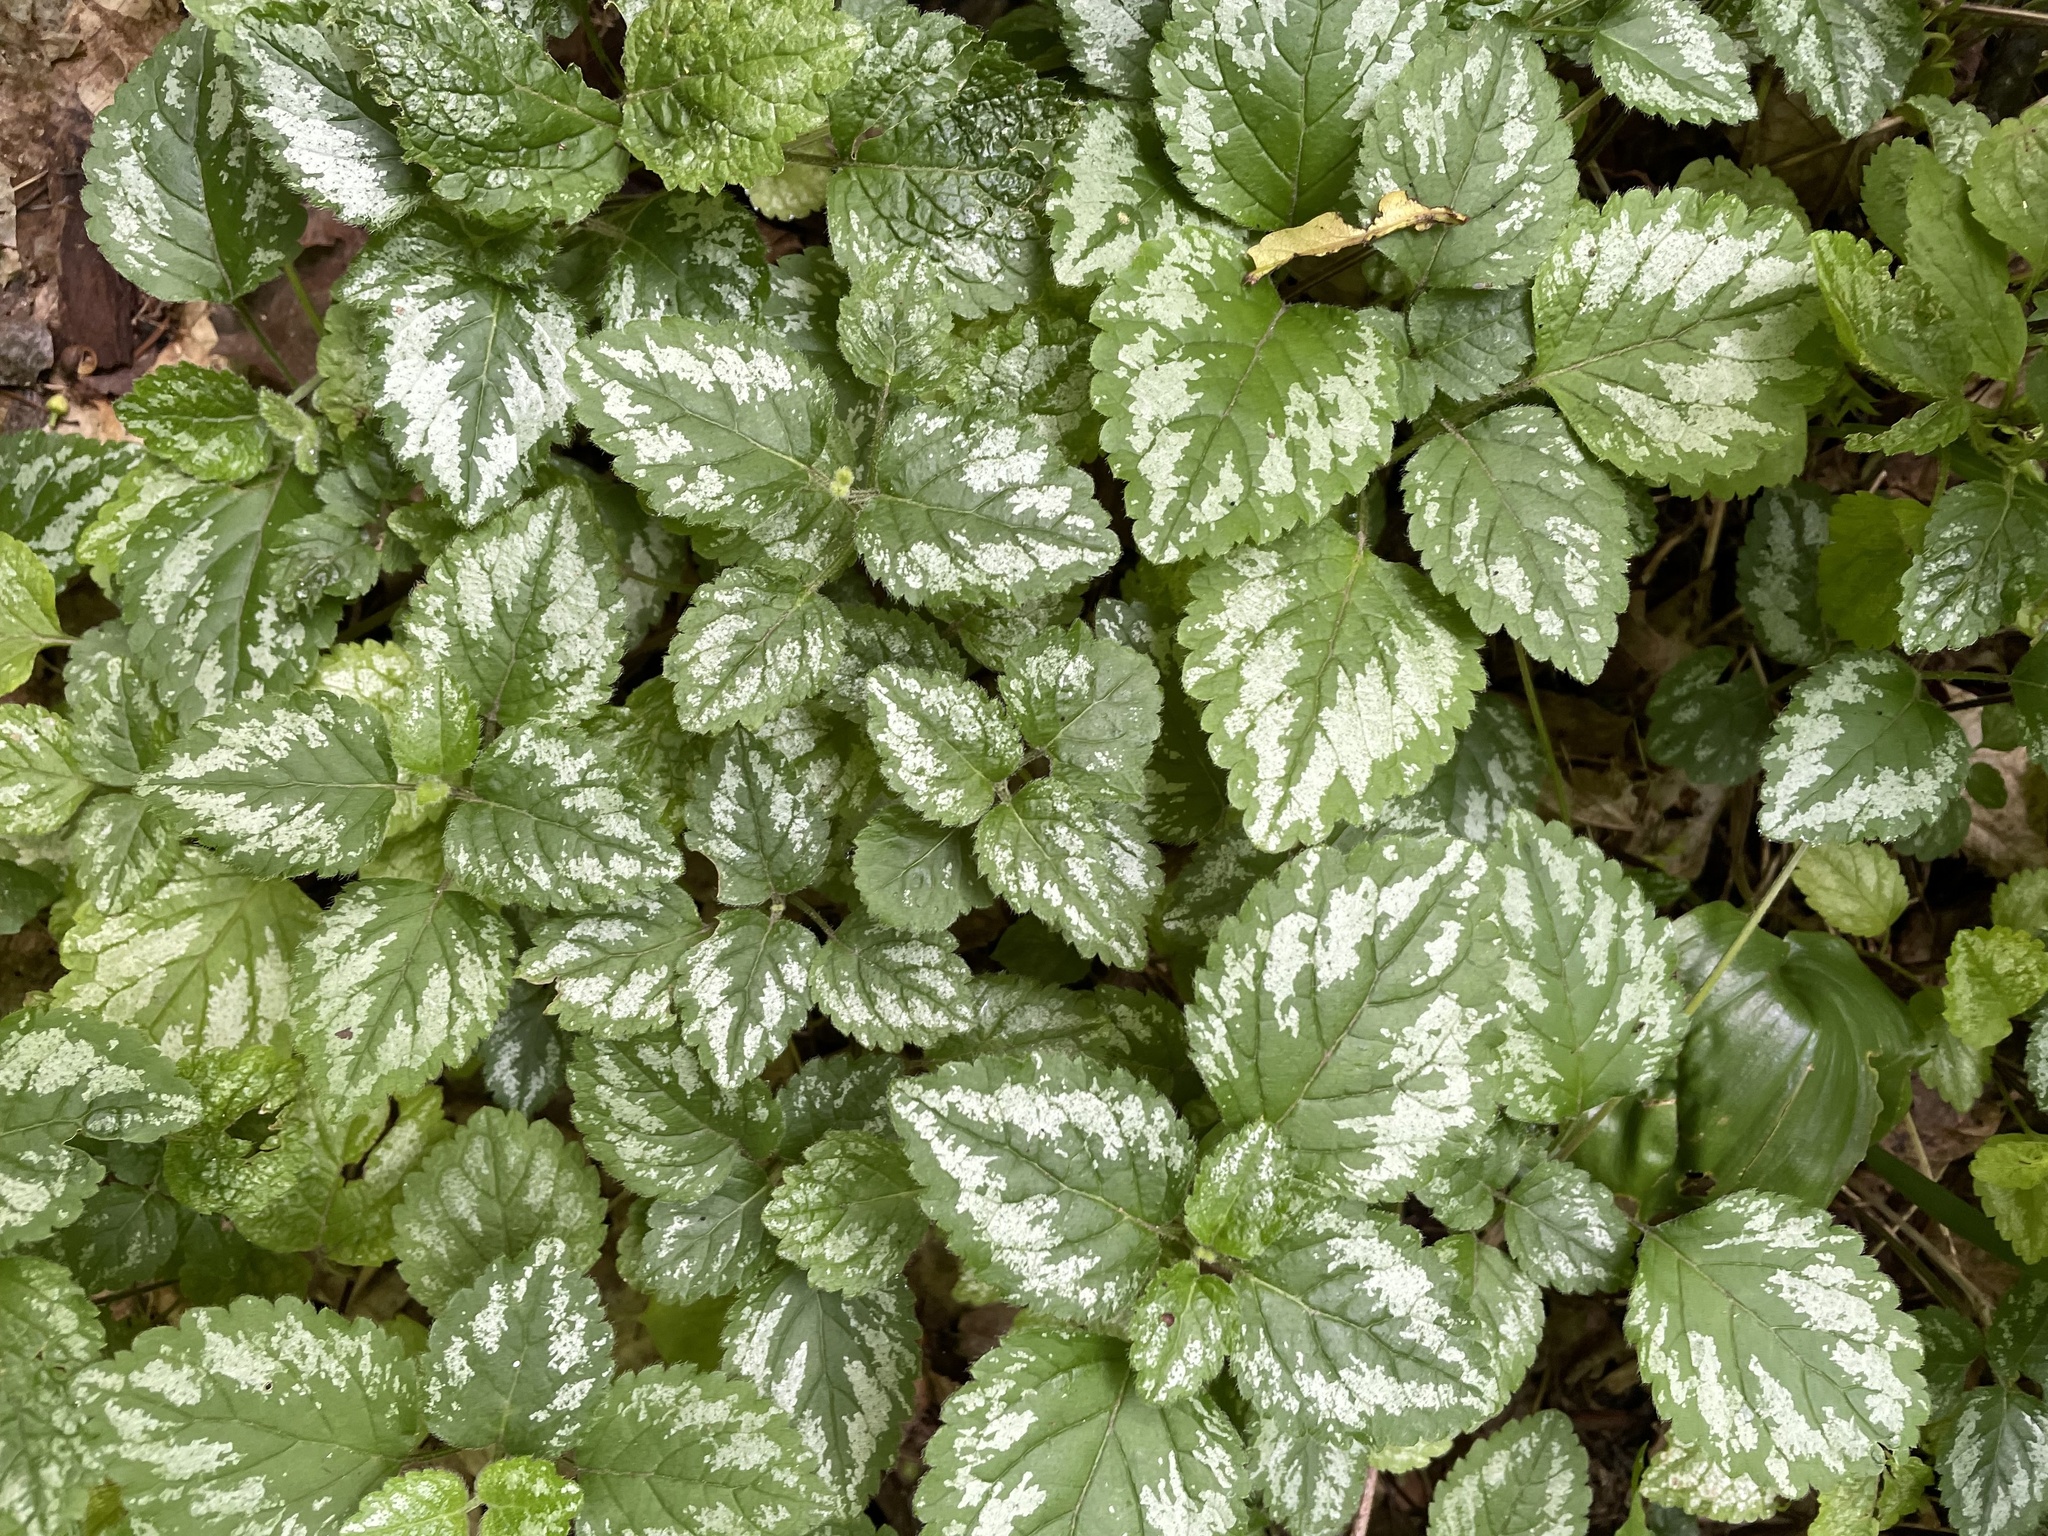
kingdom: Plantae
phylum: Tracheophyta
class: Magnoliopsida
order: Lamiales
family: Lamiaceae
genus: Lamium
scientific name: Lamium galeobdolon
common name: Yellow archangel
